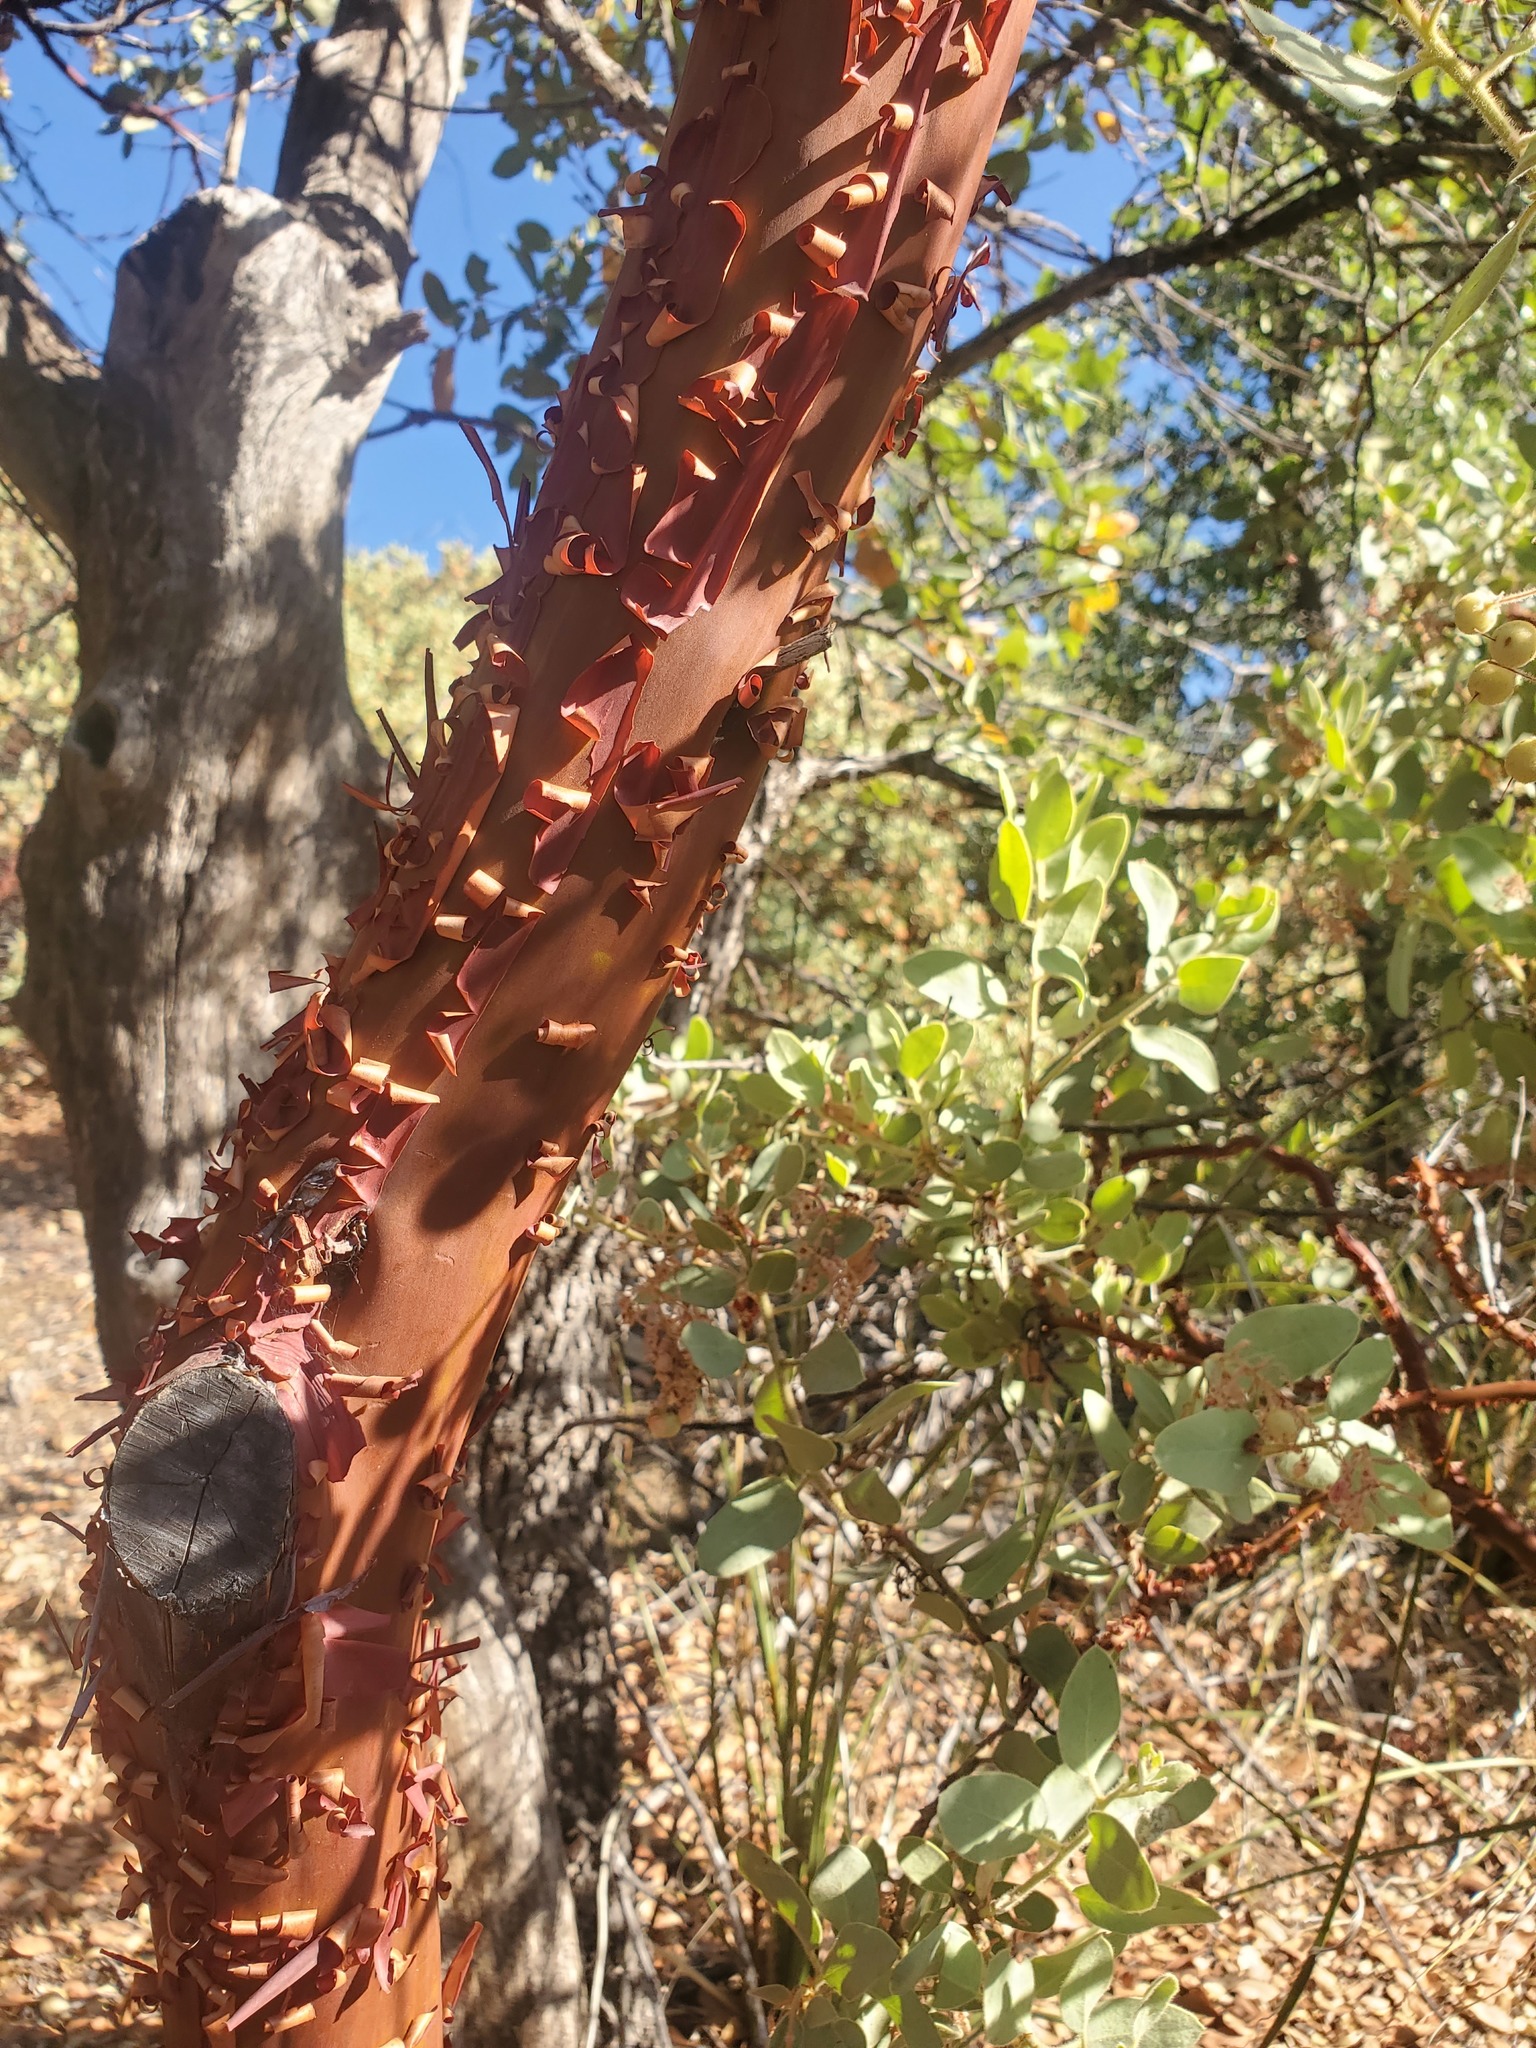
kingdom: Plantae
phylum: Tracheophyta
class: Magnoliopsida
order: Ericales
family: Ericaceae
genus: Arctostaphylos
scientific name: Arctostaphylos pringlei
